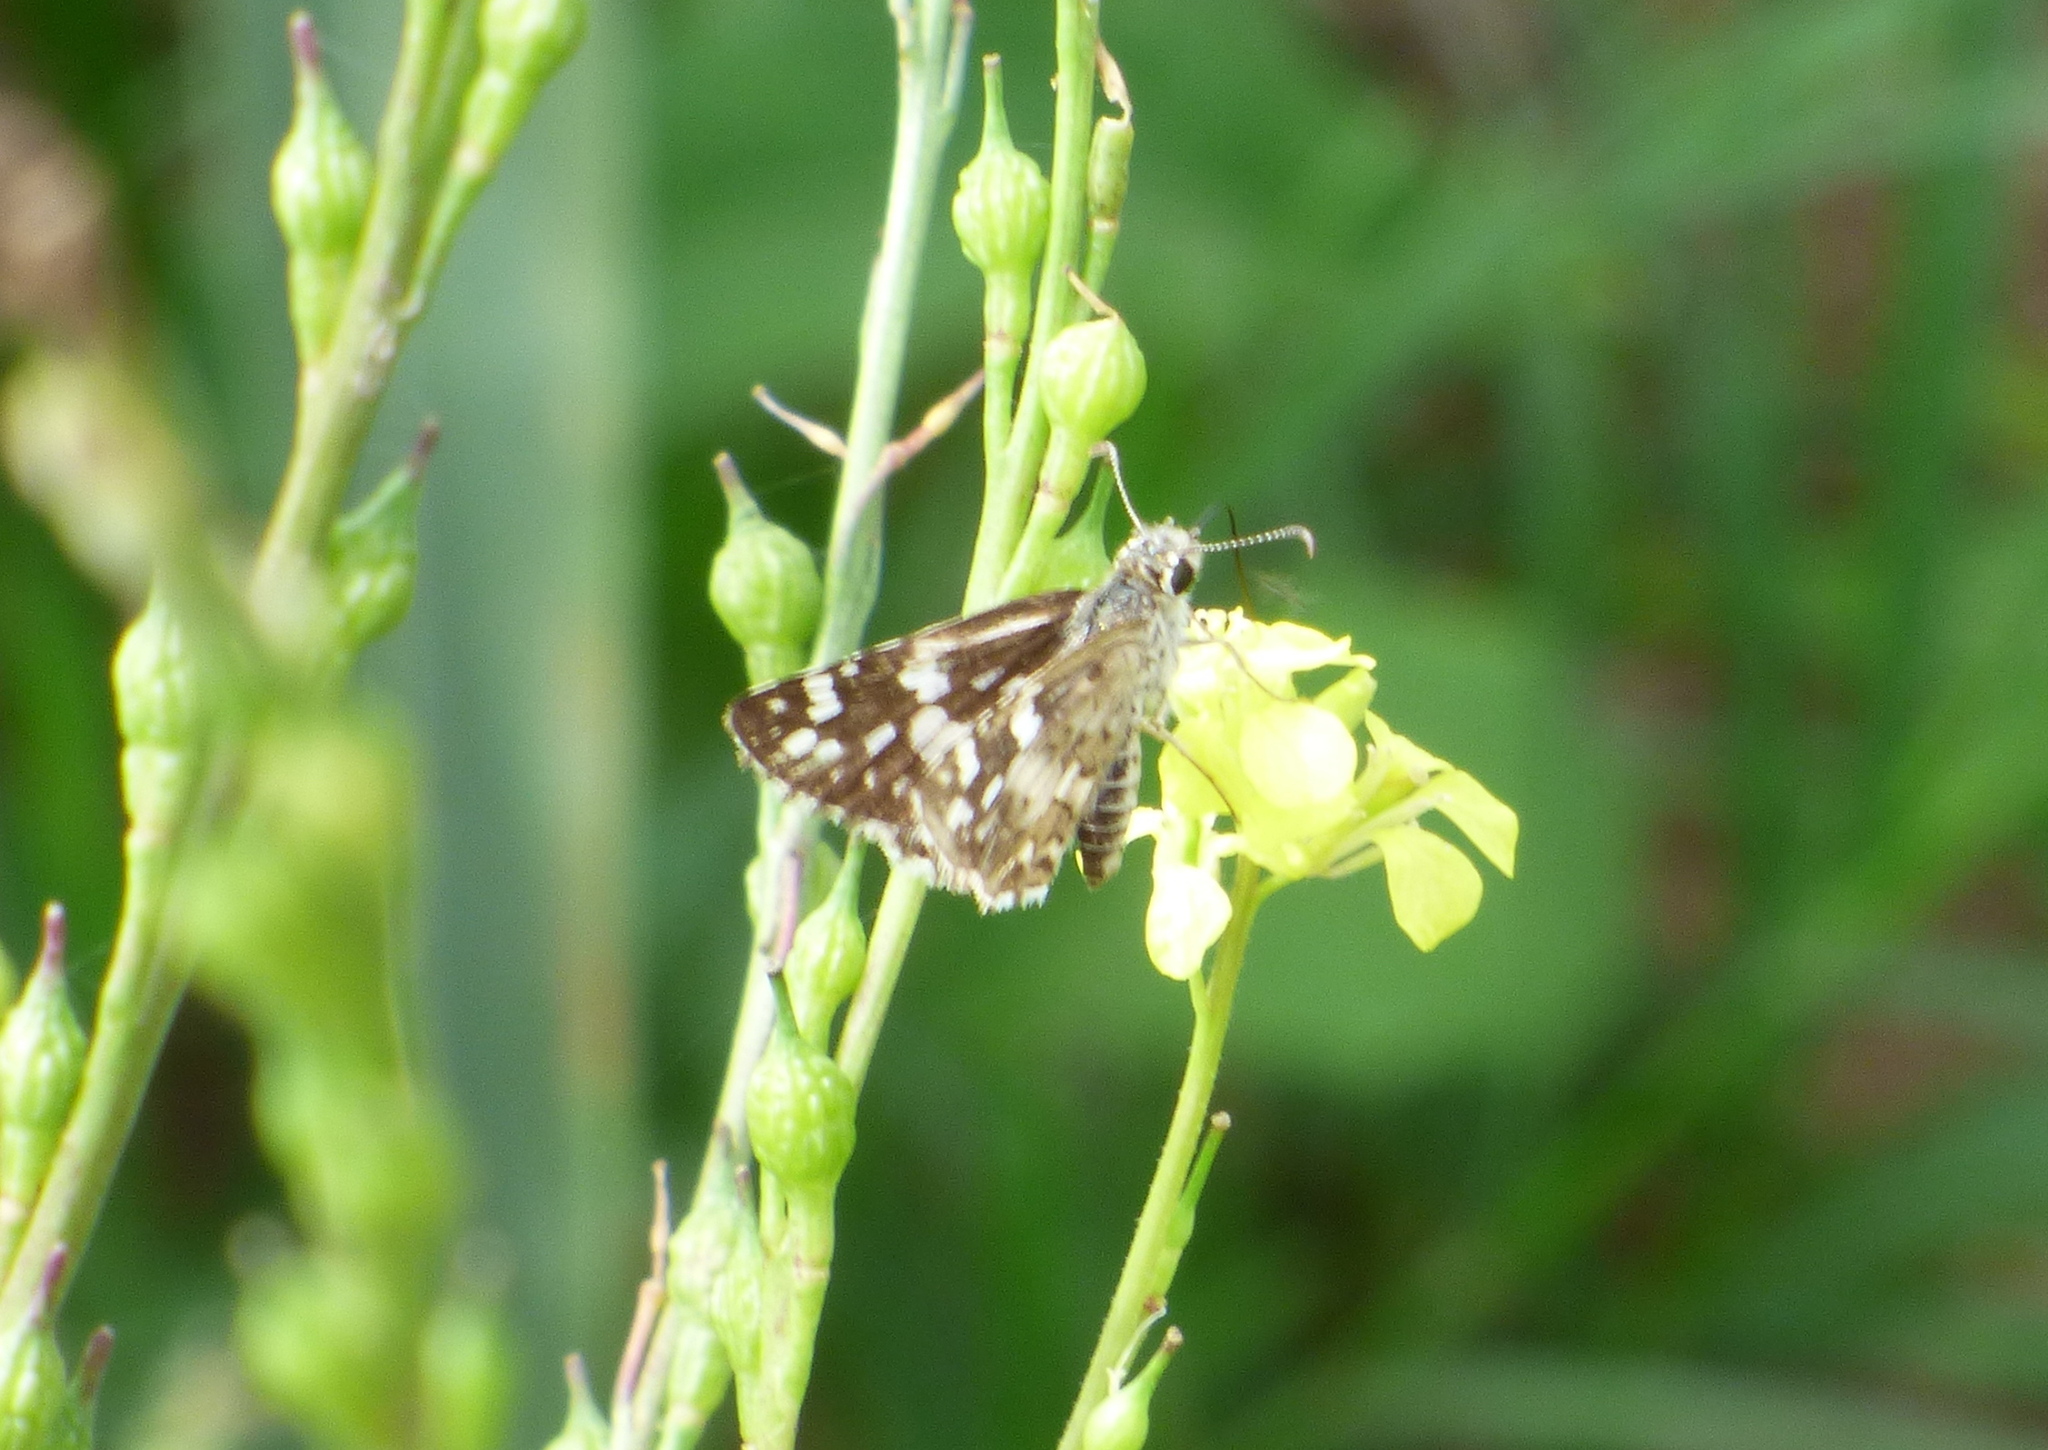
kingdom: Animalia
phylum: Arthropoda
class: Insecta
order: Lepidoptera
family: Hesperiidae
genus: Burnsius
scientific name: Burnsius orcynoides
